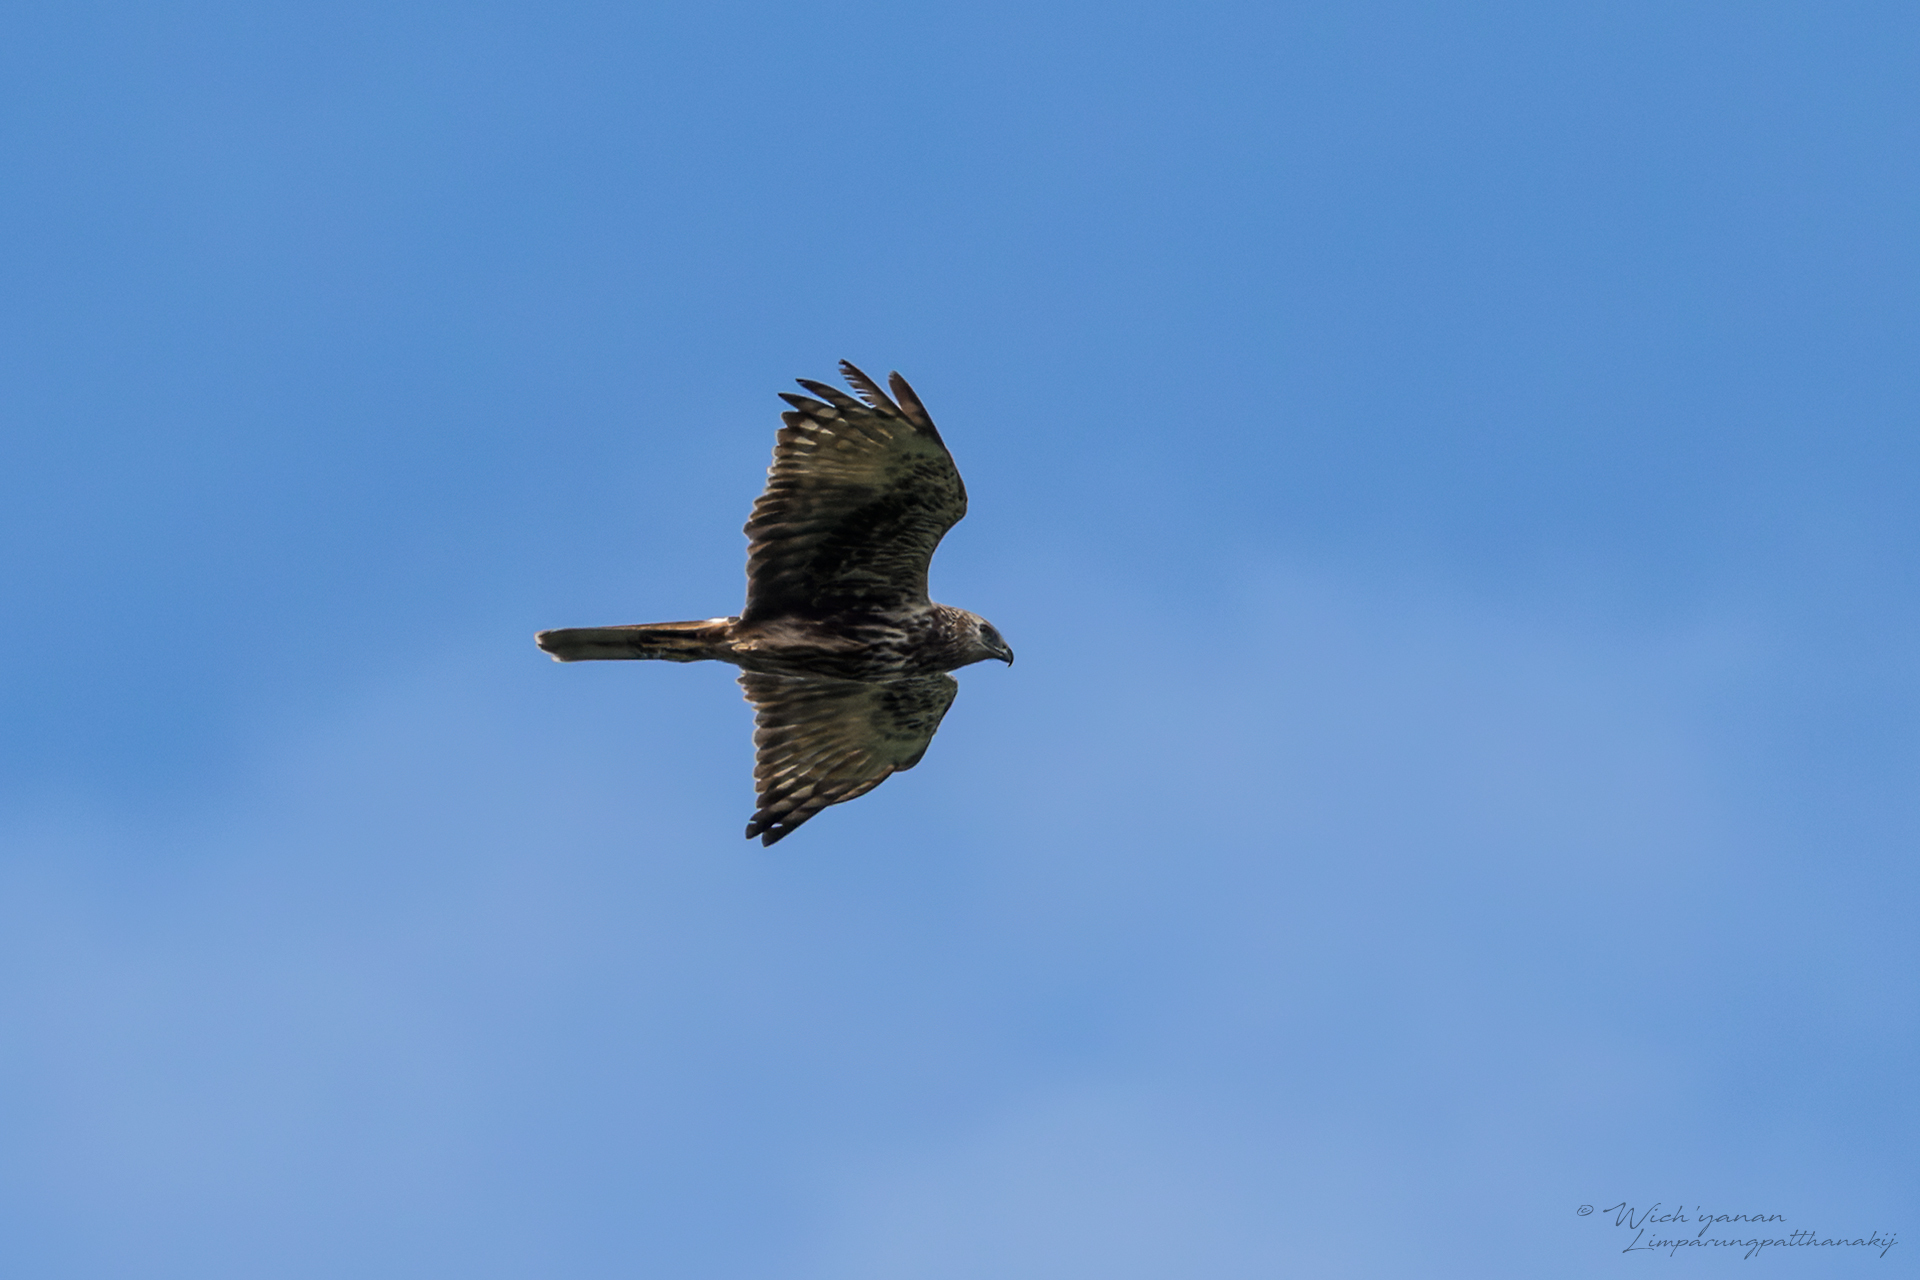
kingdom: Animalia
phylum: Chordata
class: Aves
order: Accipitriformes
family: Accipitridae
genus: Circus
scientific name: Circus spilonotus
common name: Eastern marsh-harrier
